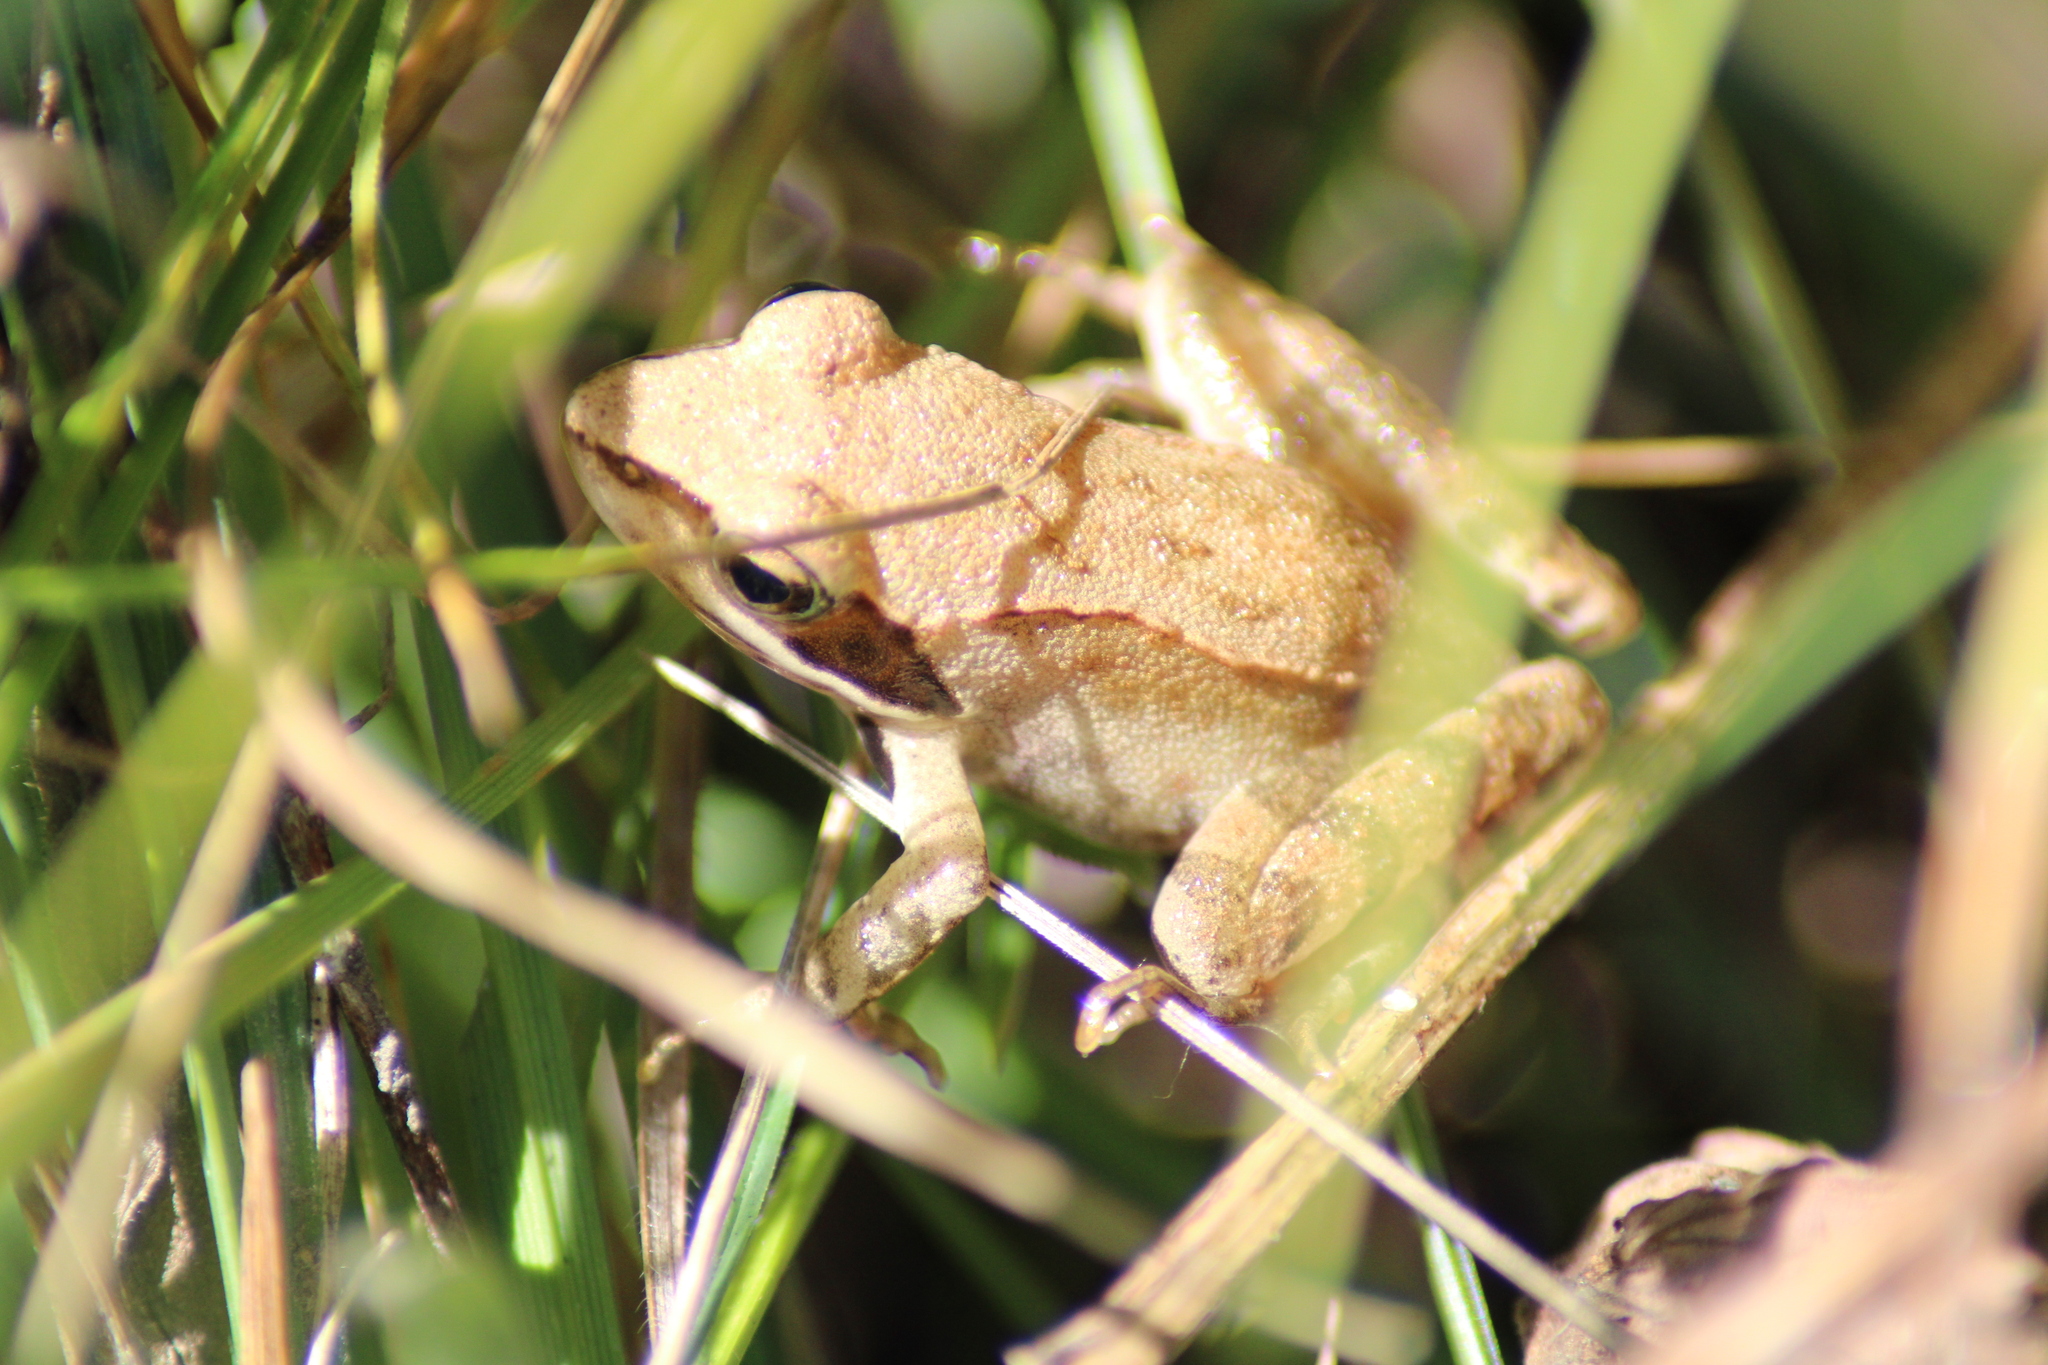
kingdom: Animalia
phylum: Chordata
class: Amphibia
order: Anura
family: Ranidae
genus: Rana
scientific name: Rana dalmatina
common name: Agile frog
